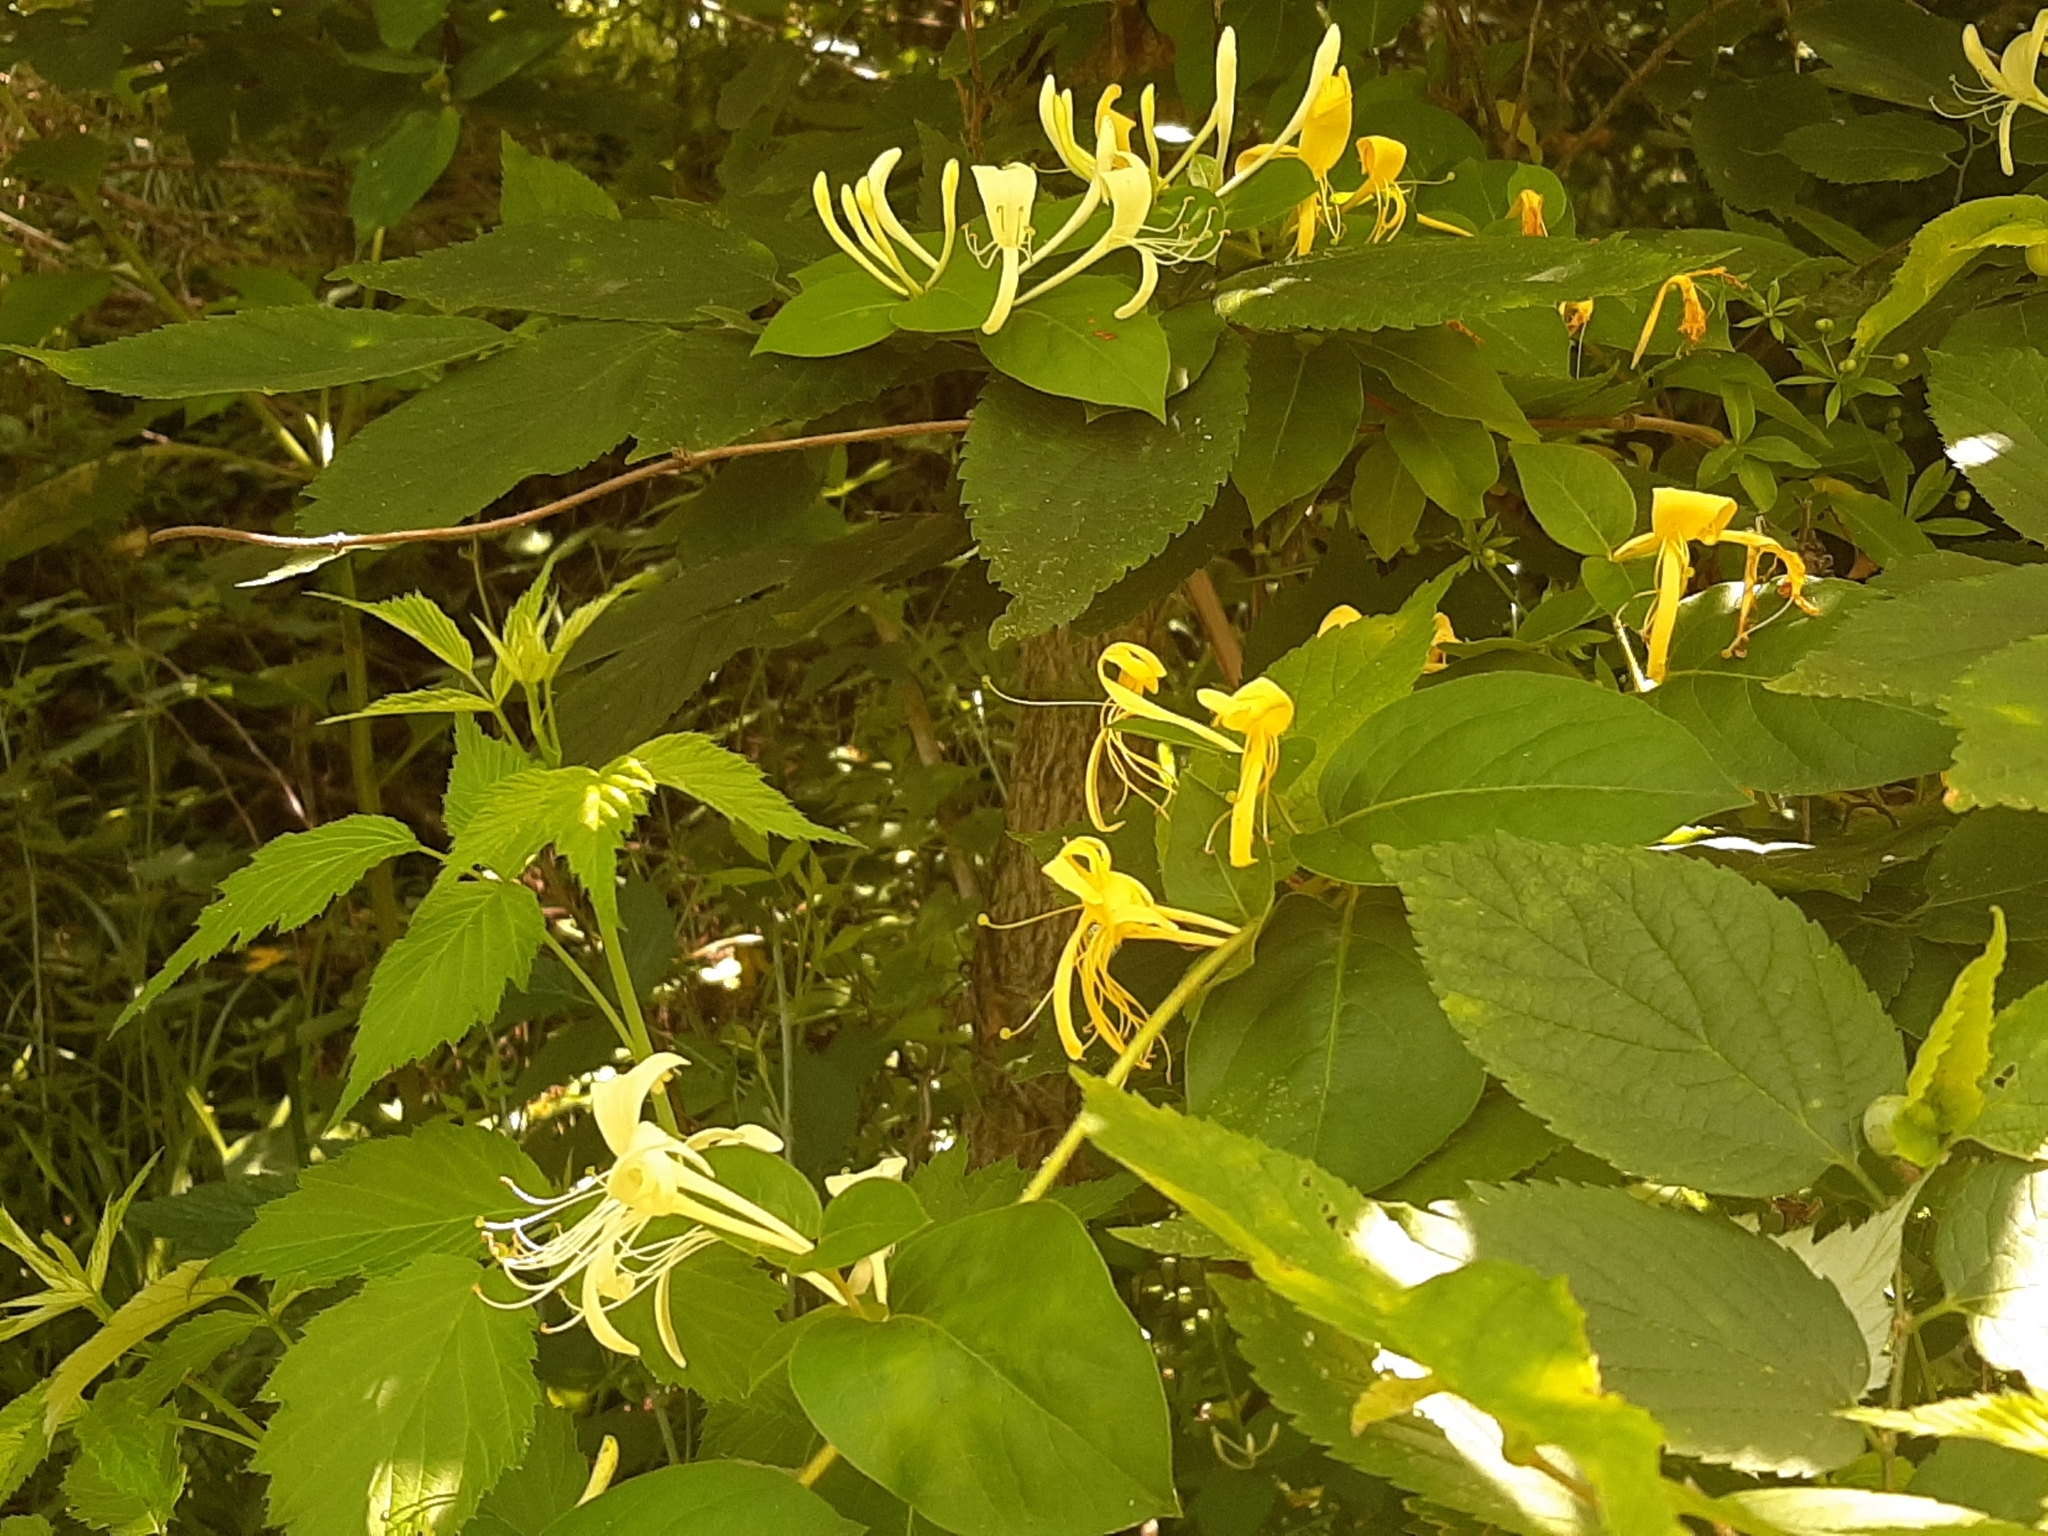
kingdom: Plantae
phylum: Tracheophyta
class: Magnoliopsida
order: Dipsacales
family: Caprifoliaceae
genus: Lonicera
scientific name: Lonicera japonica
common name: Japanese honeysuckle
